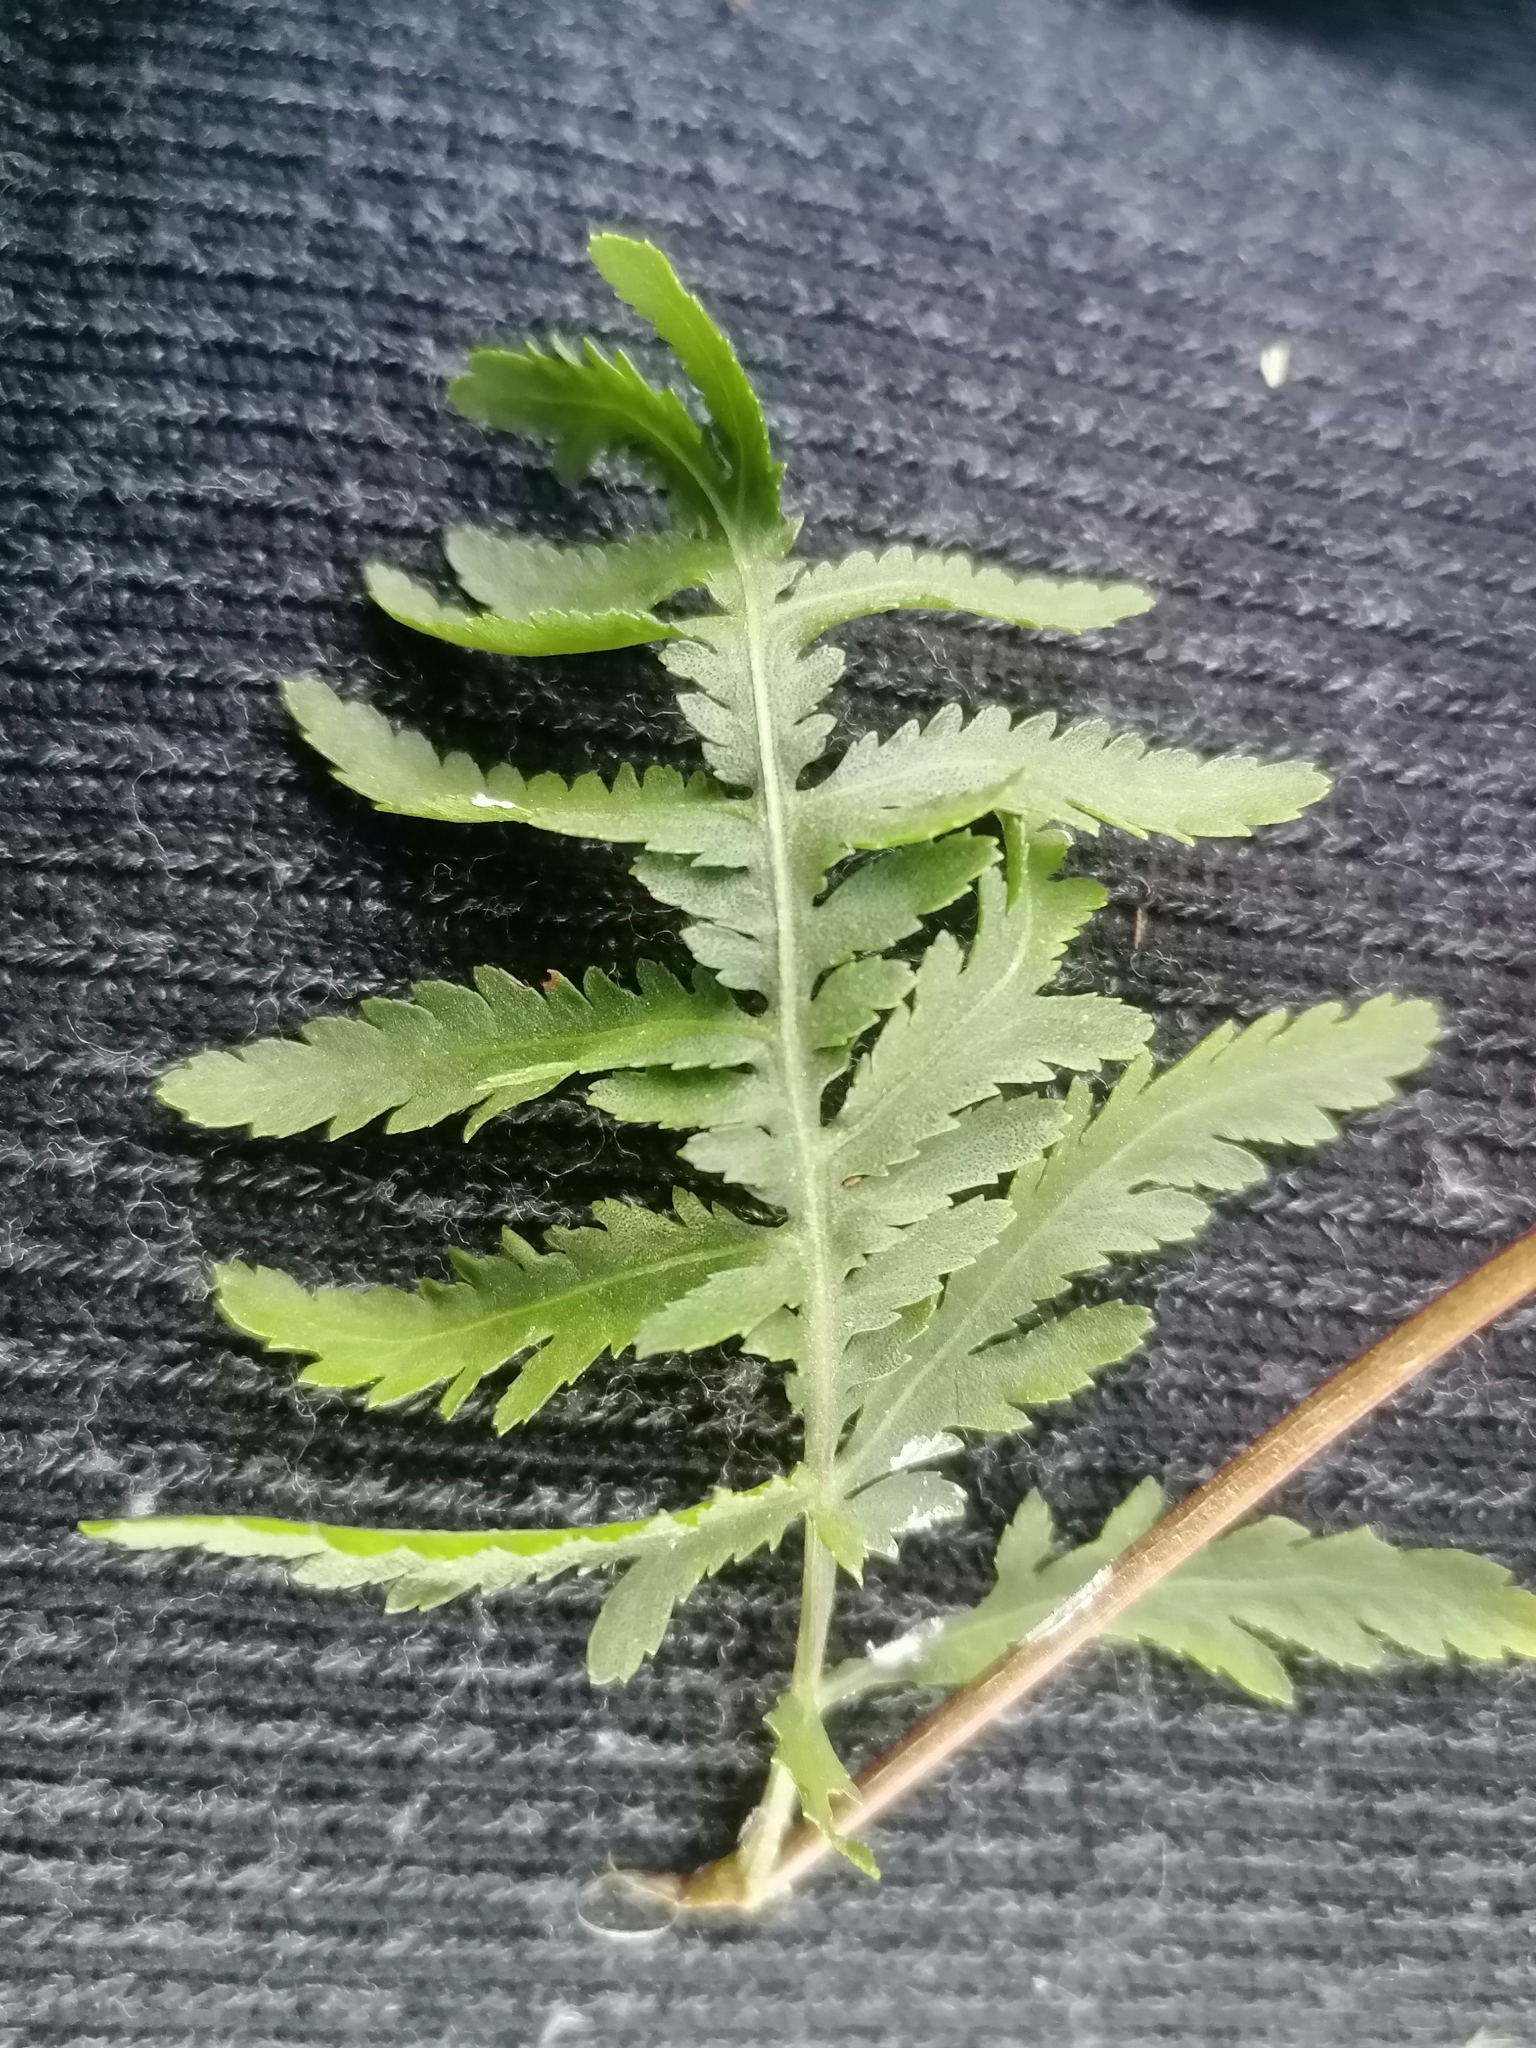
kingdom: Plantae
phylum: Tracheophyta
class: Magnoliopsida
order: Asterales
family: Asteraceae
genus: Tanacetum
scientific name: Tanacetum vulgare
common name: Common tansy
